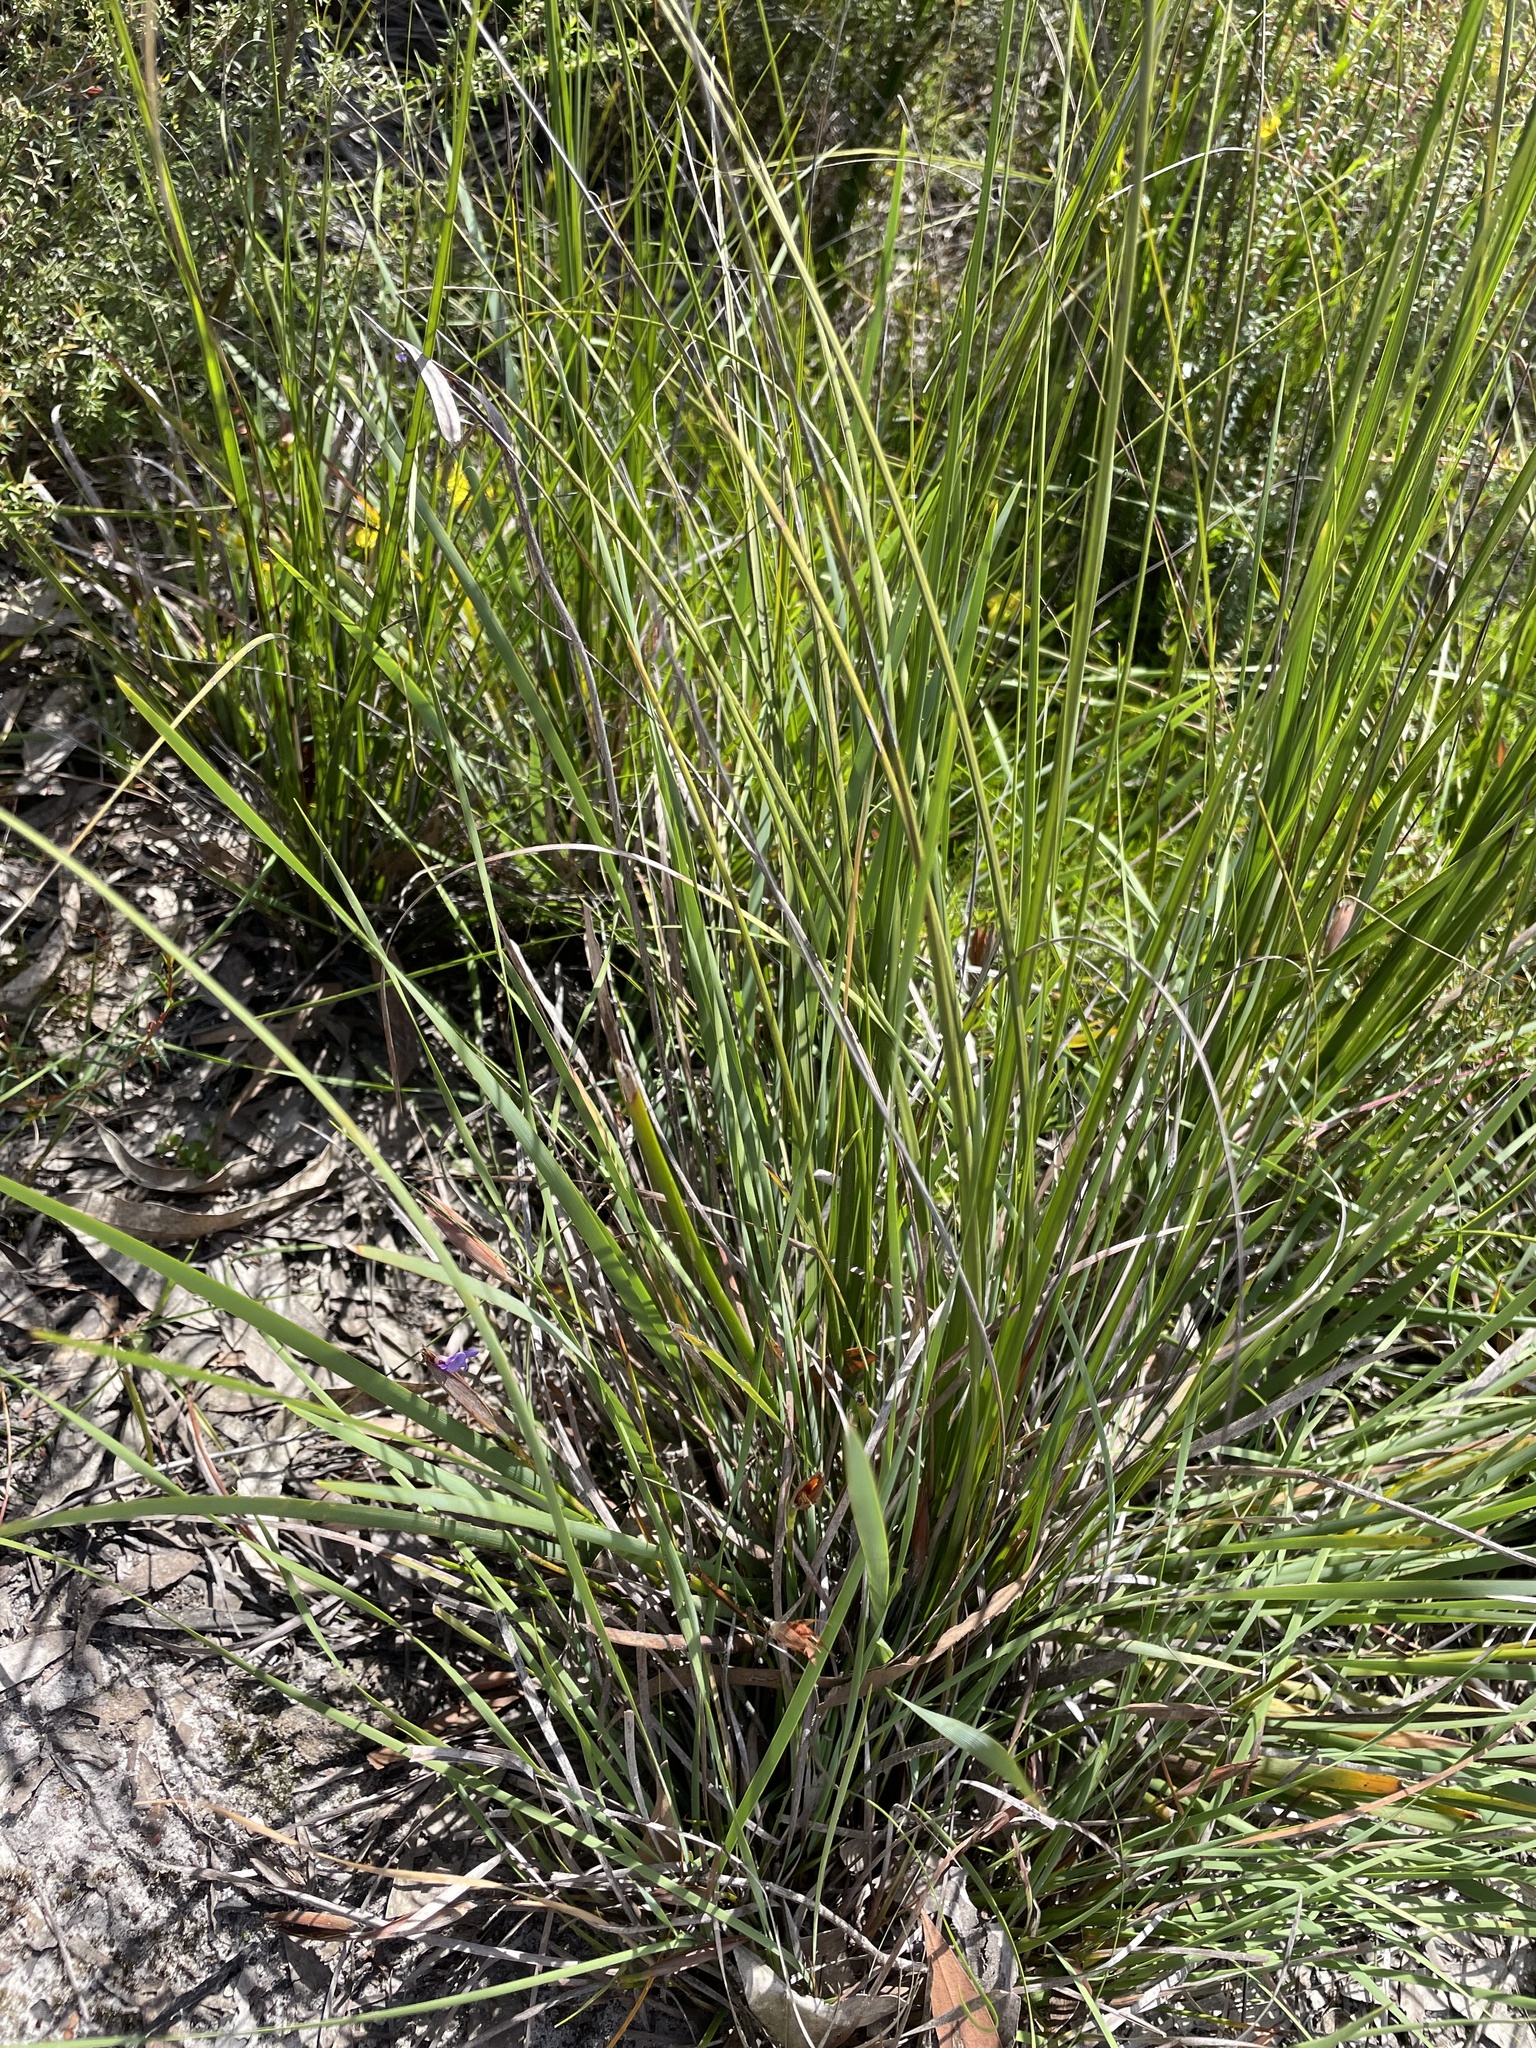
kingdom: Plantae
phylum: Tracheophyta
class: Liliopsida
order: Asparagales
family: Iridaceae
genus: Patersonia
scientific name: Patersonia fragilis
